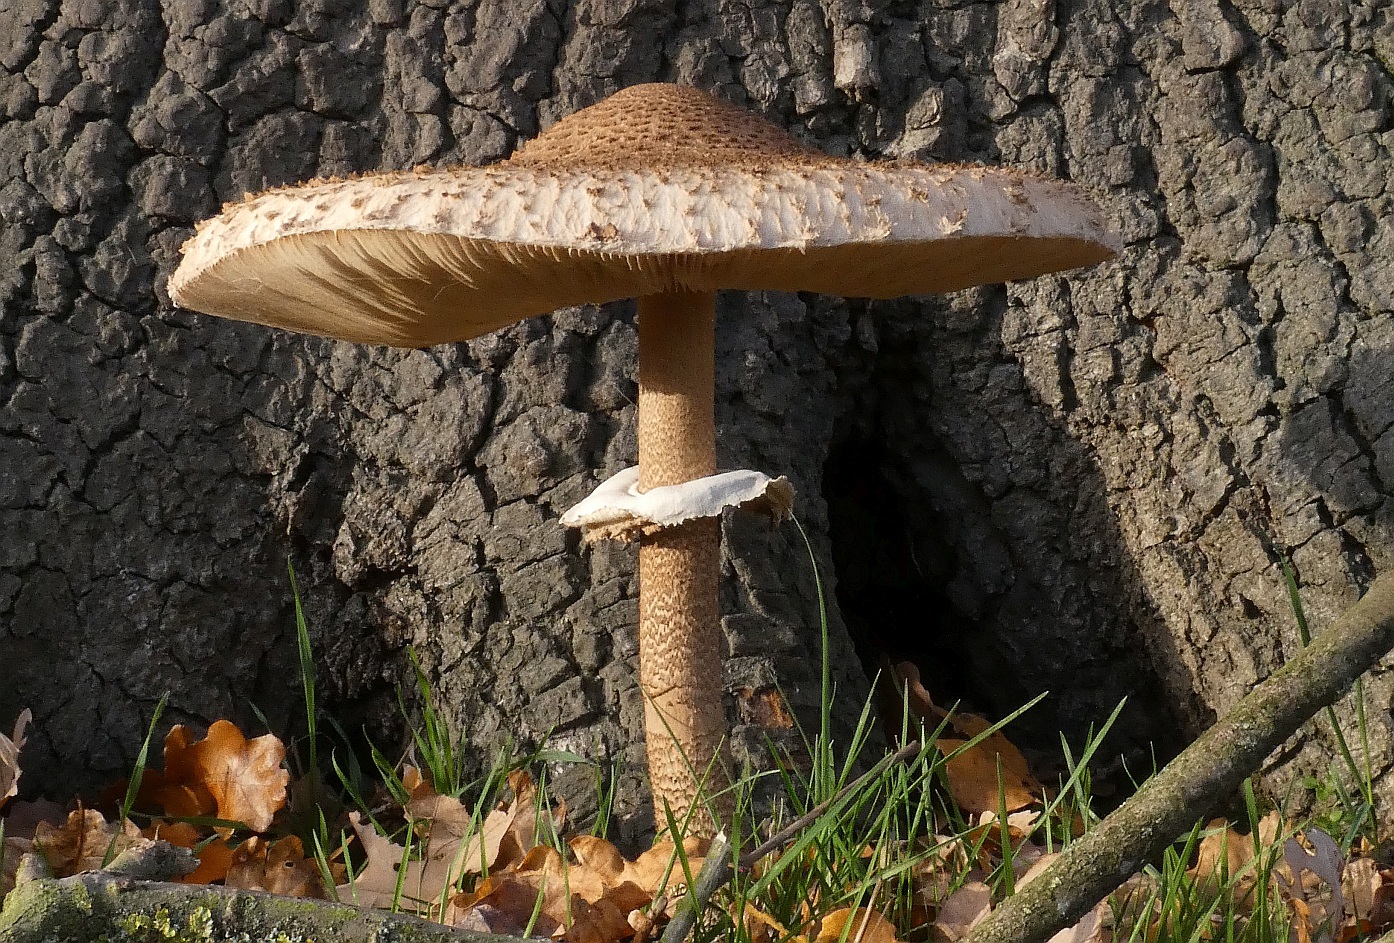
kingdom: Fungi
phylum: Basidiomycota
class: Agaricomycetes
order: Agaricales
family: Agaricaceae
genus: Macrolepiota
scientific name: Macrolepiota procera
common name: Parasol
